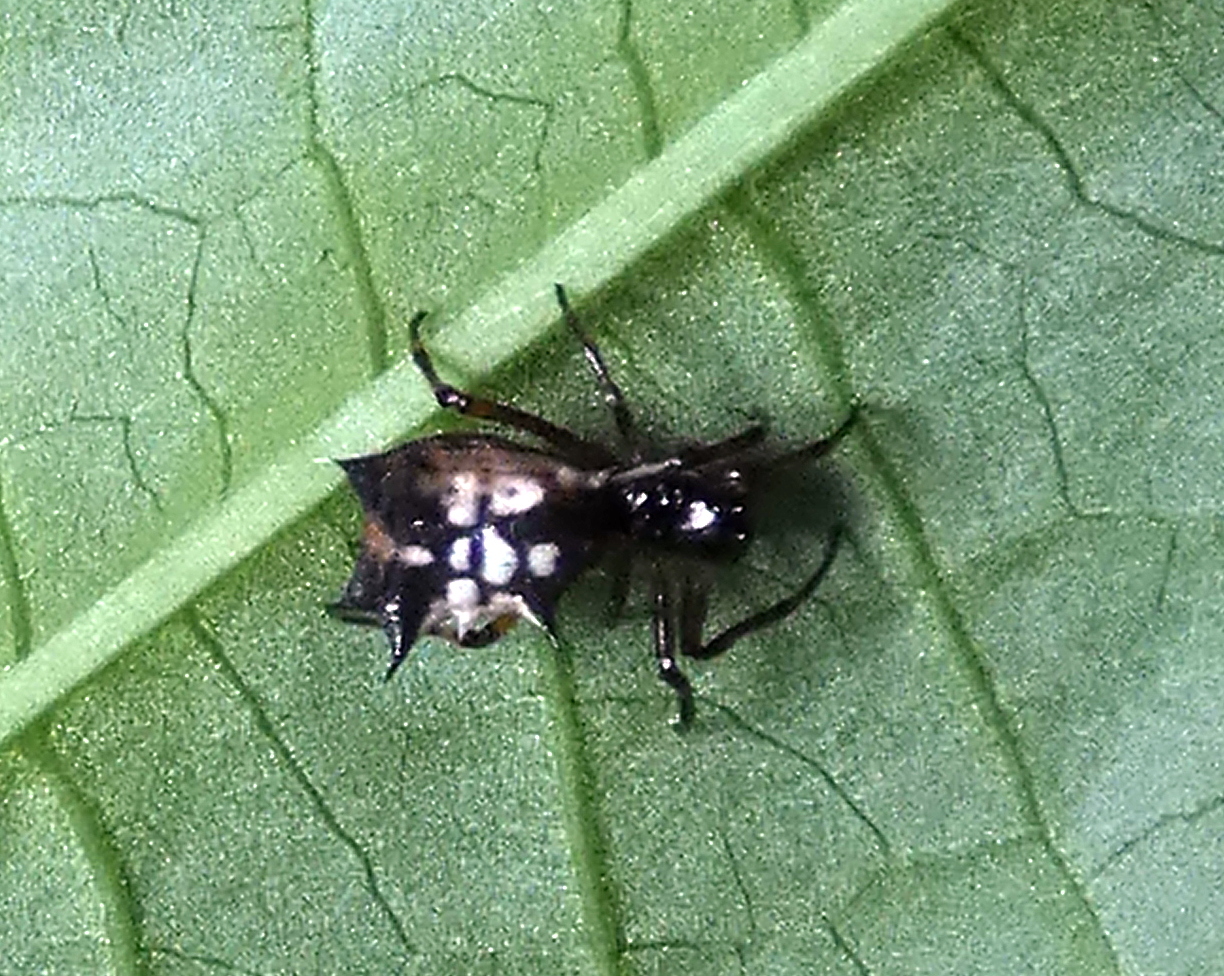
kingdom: Animalia
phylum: Arthropoda
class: Arachnida
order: Araneae
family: Araneidae
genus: Micrathena
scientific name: Micrathena picta
